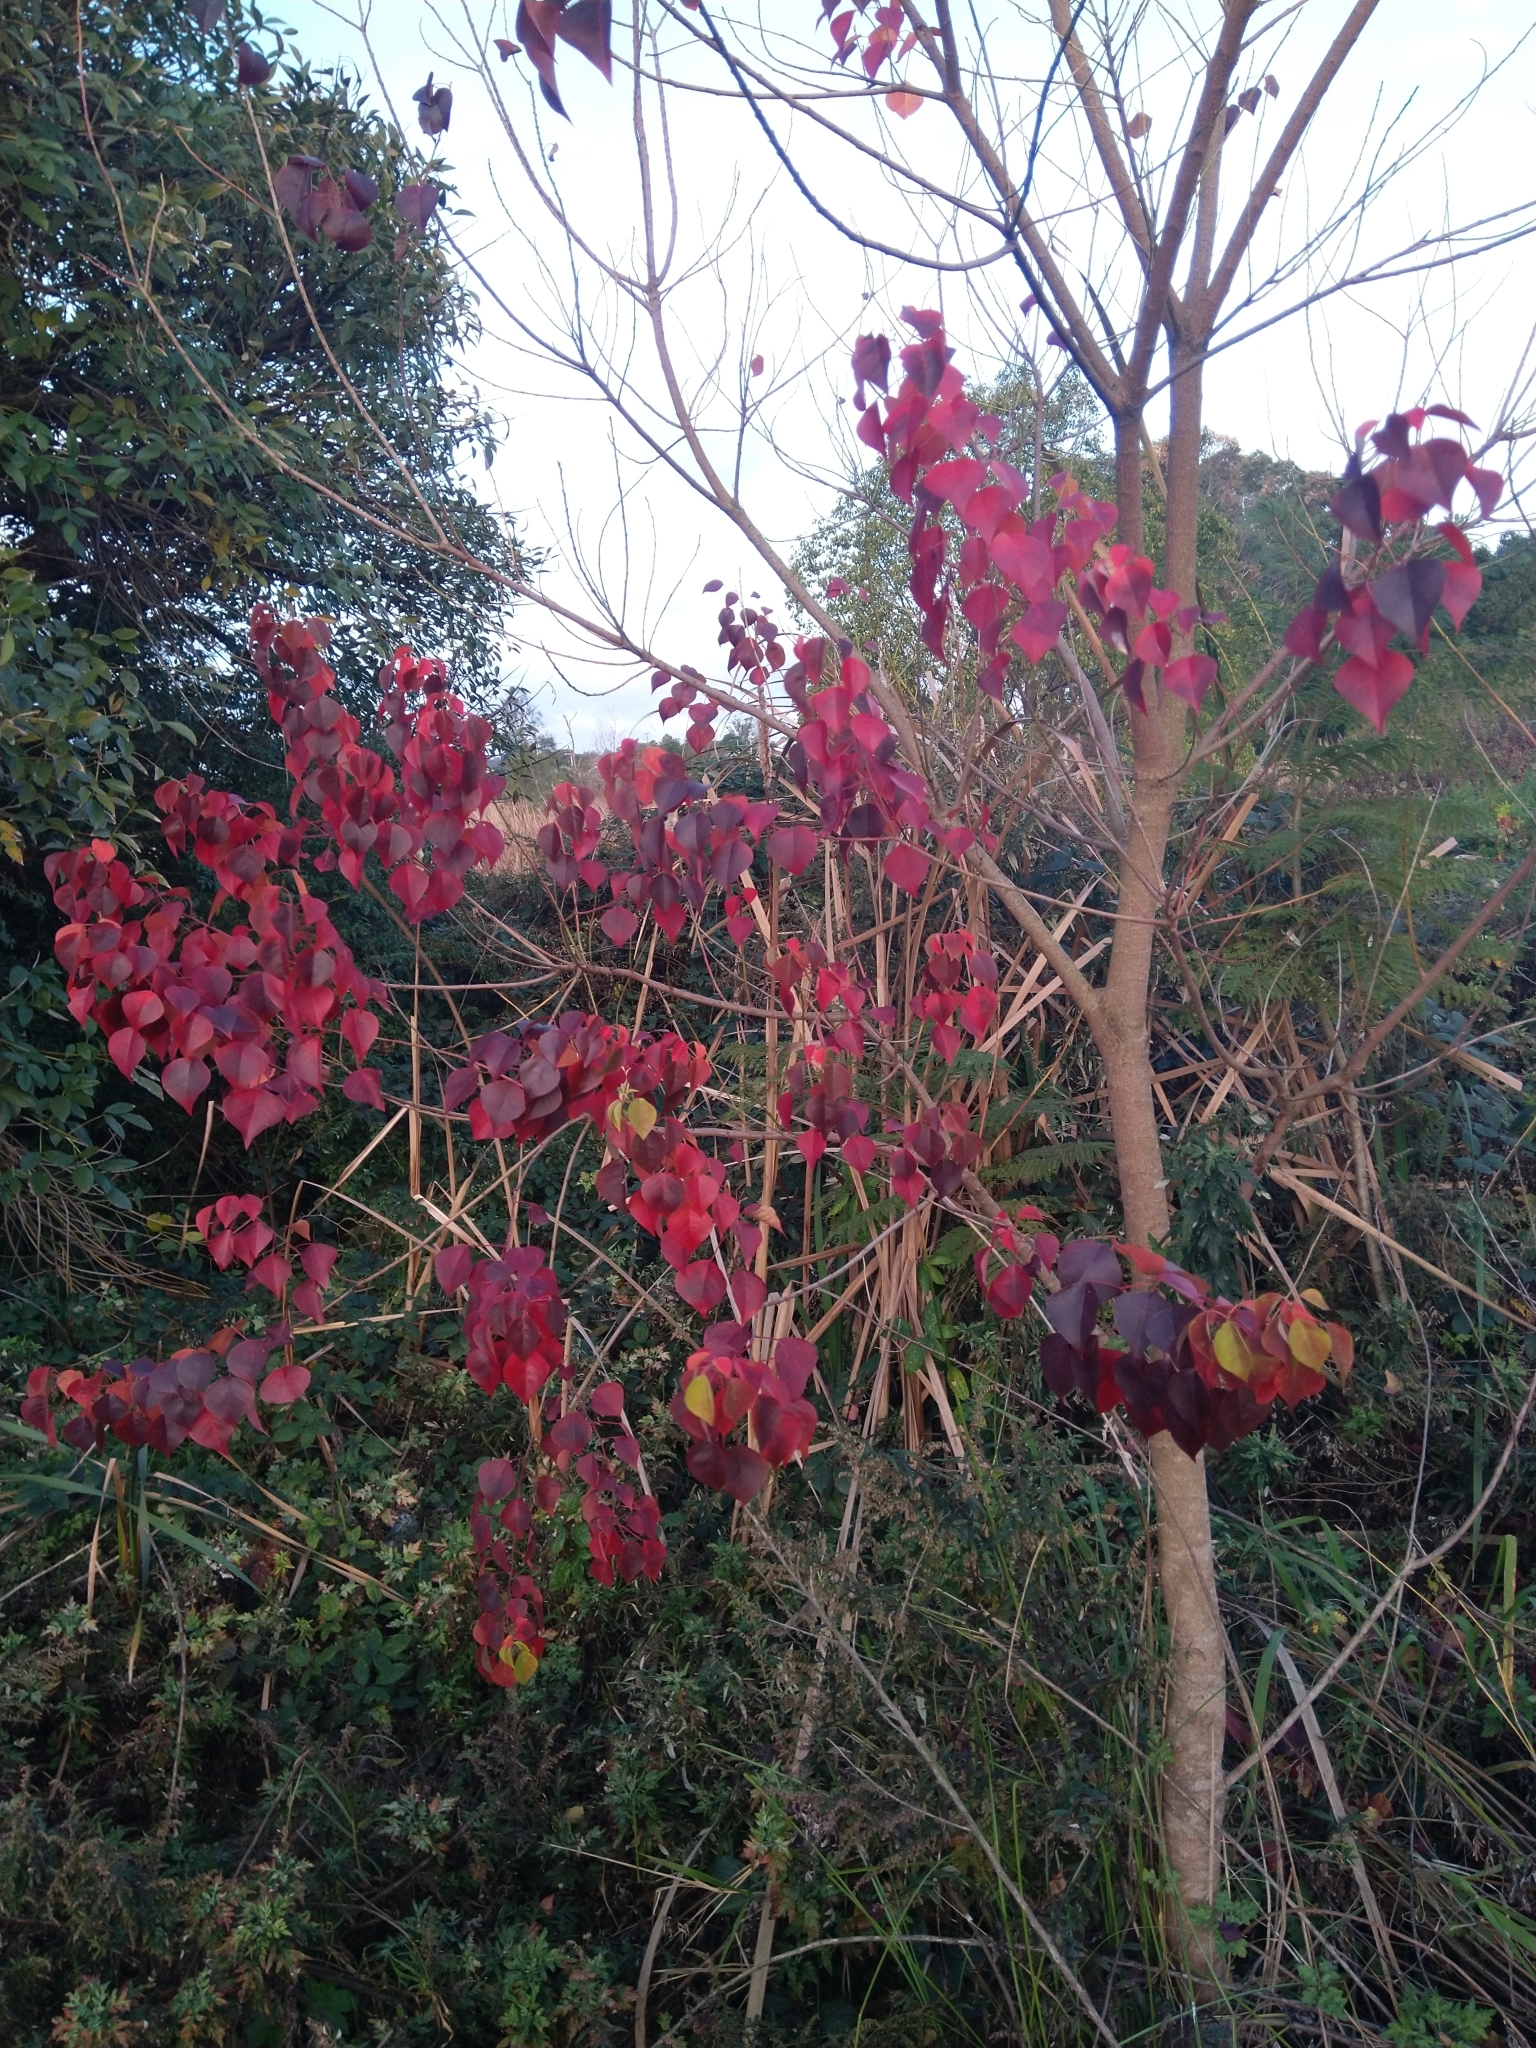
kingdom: Plantae
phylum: Tracheophyta
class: Magnoliopsida
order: Malpighiales
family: Euphorbiaceae
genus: Triadica
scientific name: Triadica sebifera
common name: Chinese tallow
